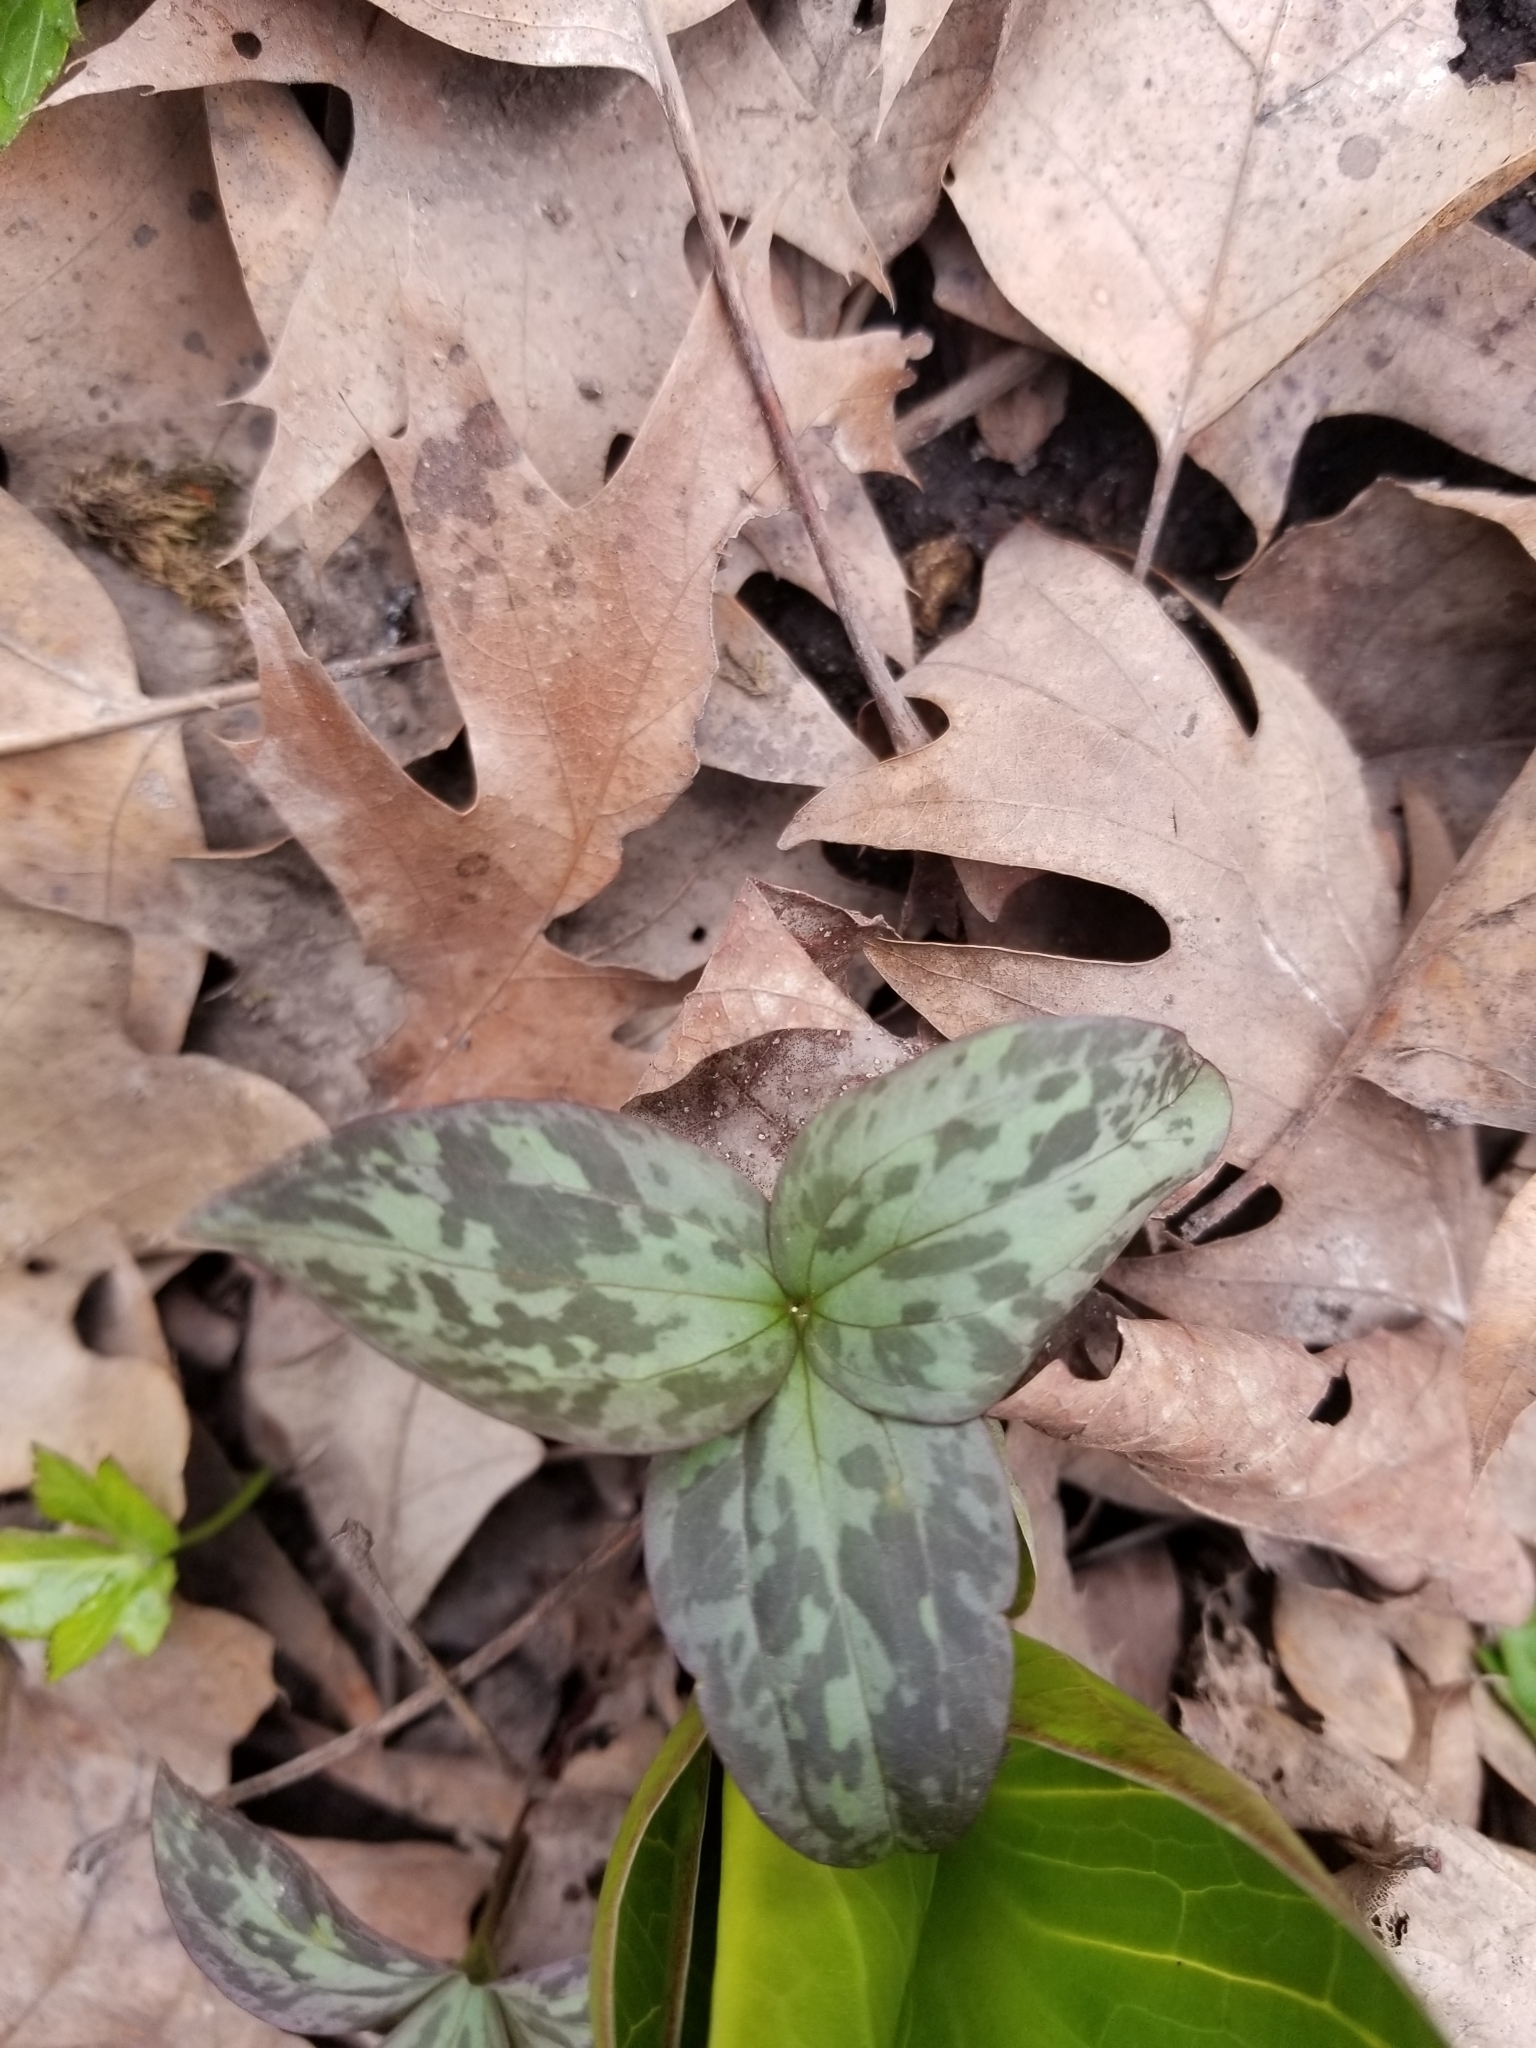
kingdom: Plantae
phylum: Tracheophyta
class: Liliopsida
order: Liliales
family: Melanthiaceae
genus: Trillium
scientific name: Trillium recurvatum
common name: Bloody butcher
